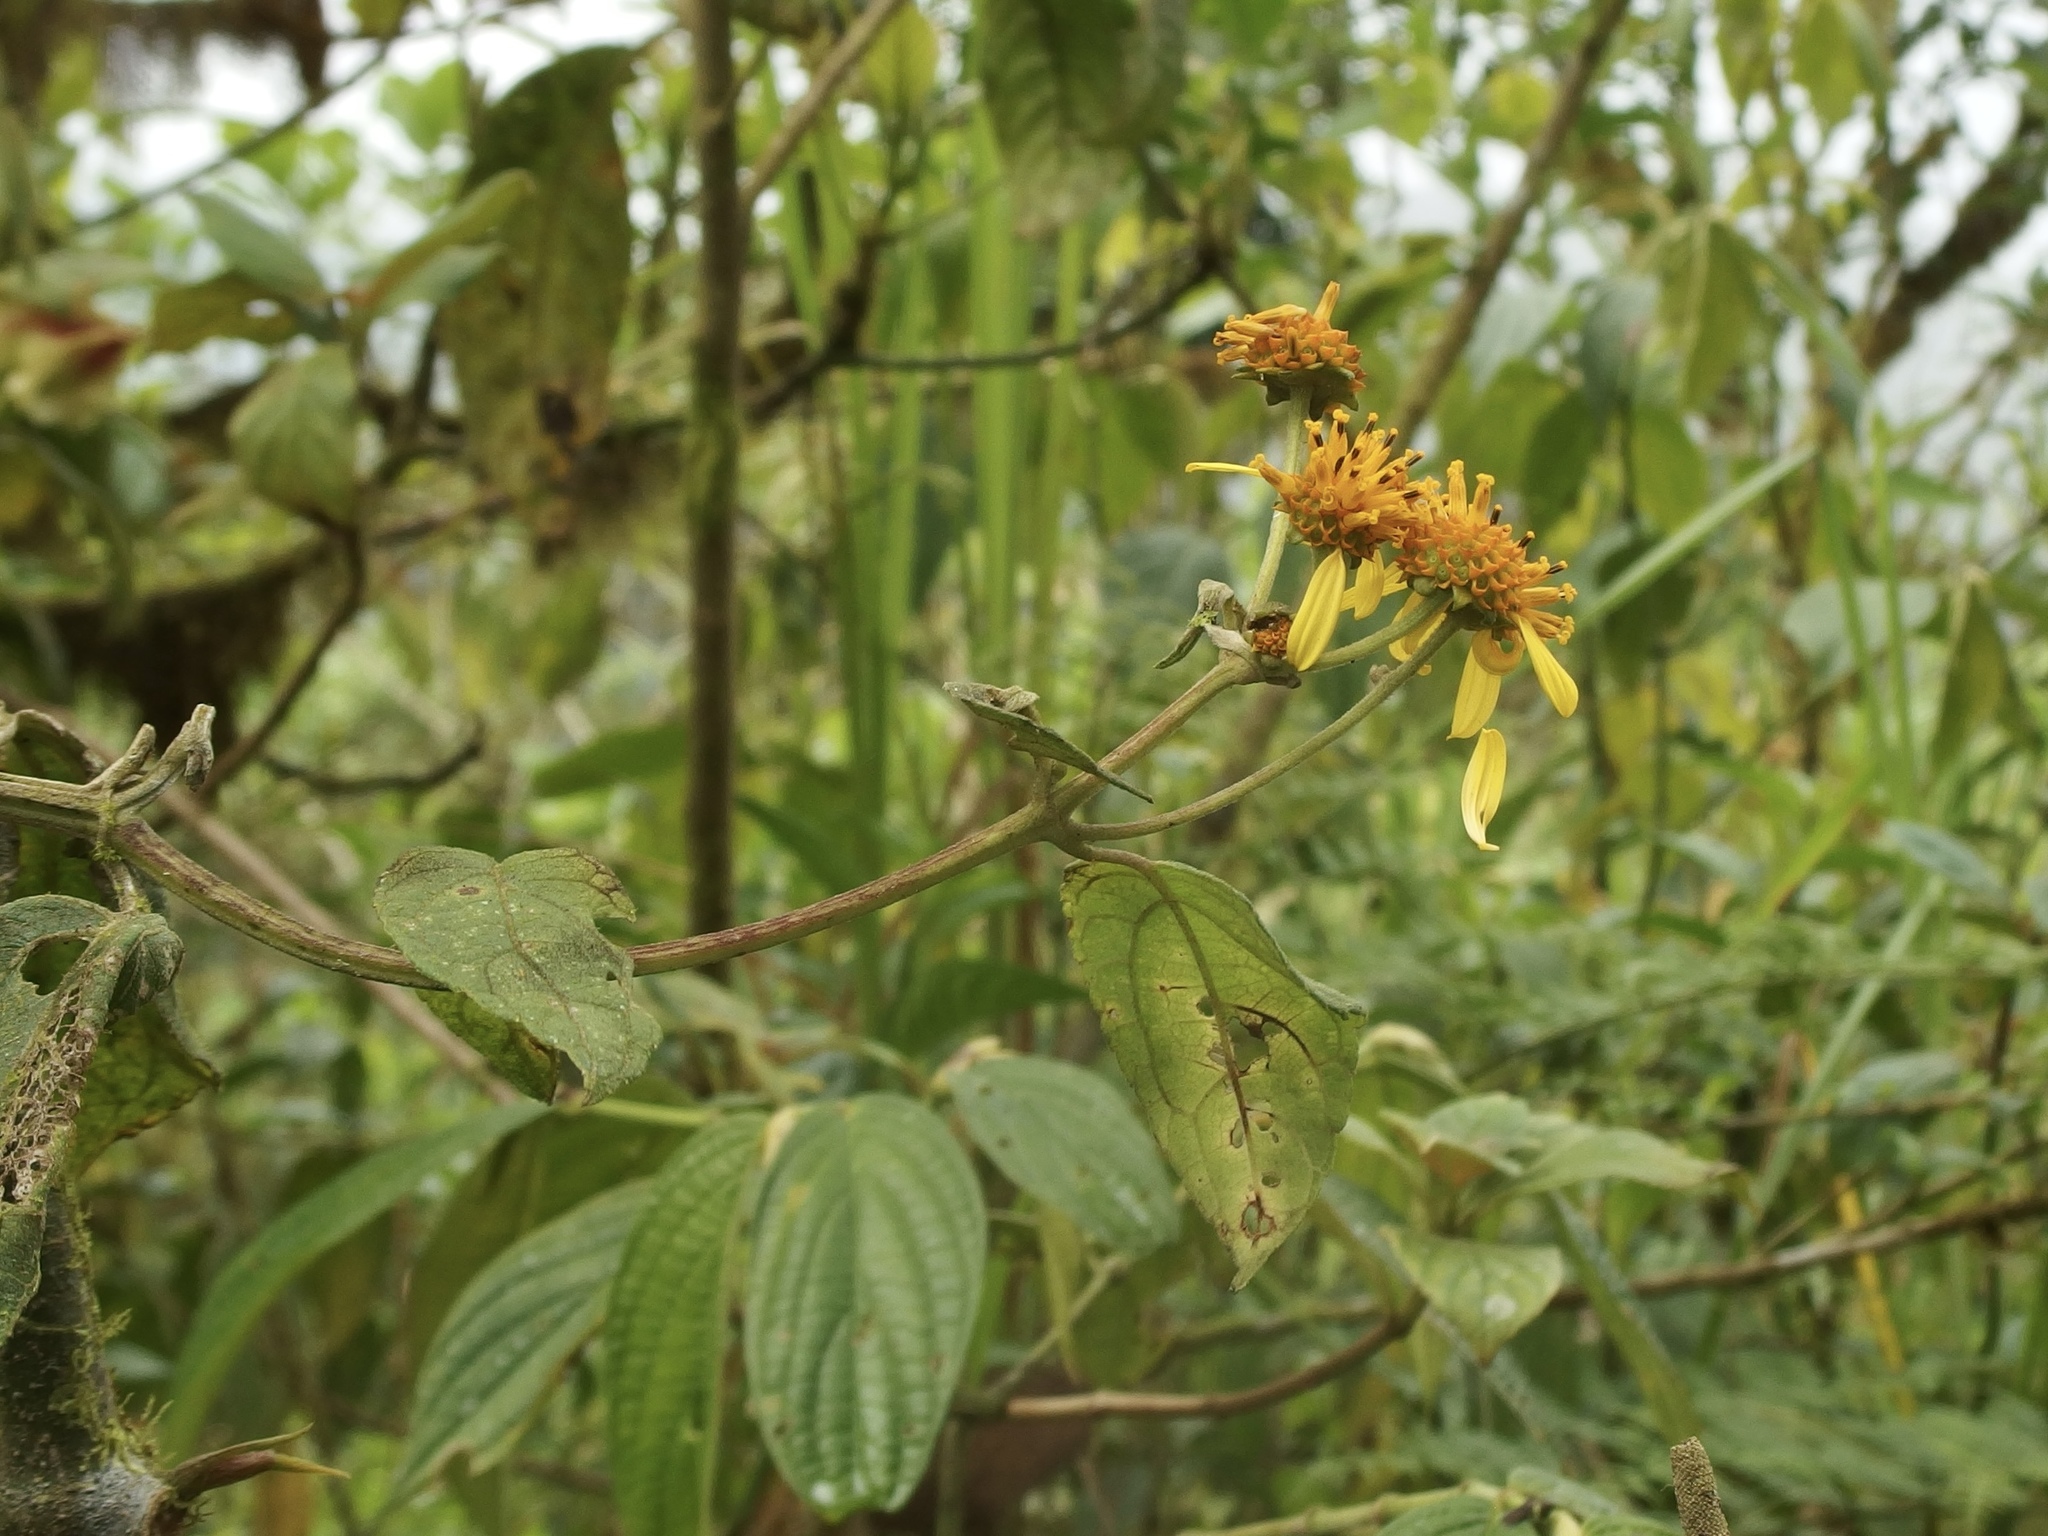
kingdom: Plantae
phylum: Tracheophyta
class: Magnoliopsida
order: Asterales
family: Asteraceae
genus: Tilesia
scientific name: Tilesia baccata
